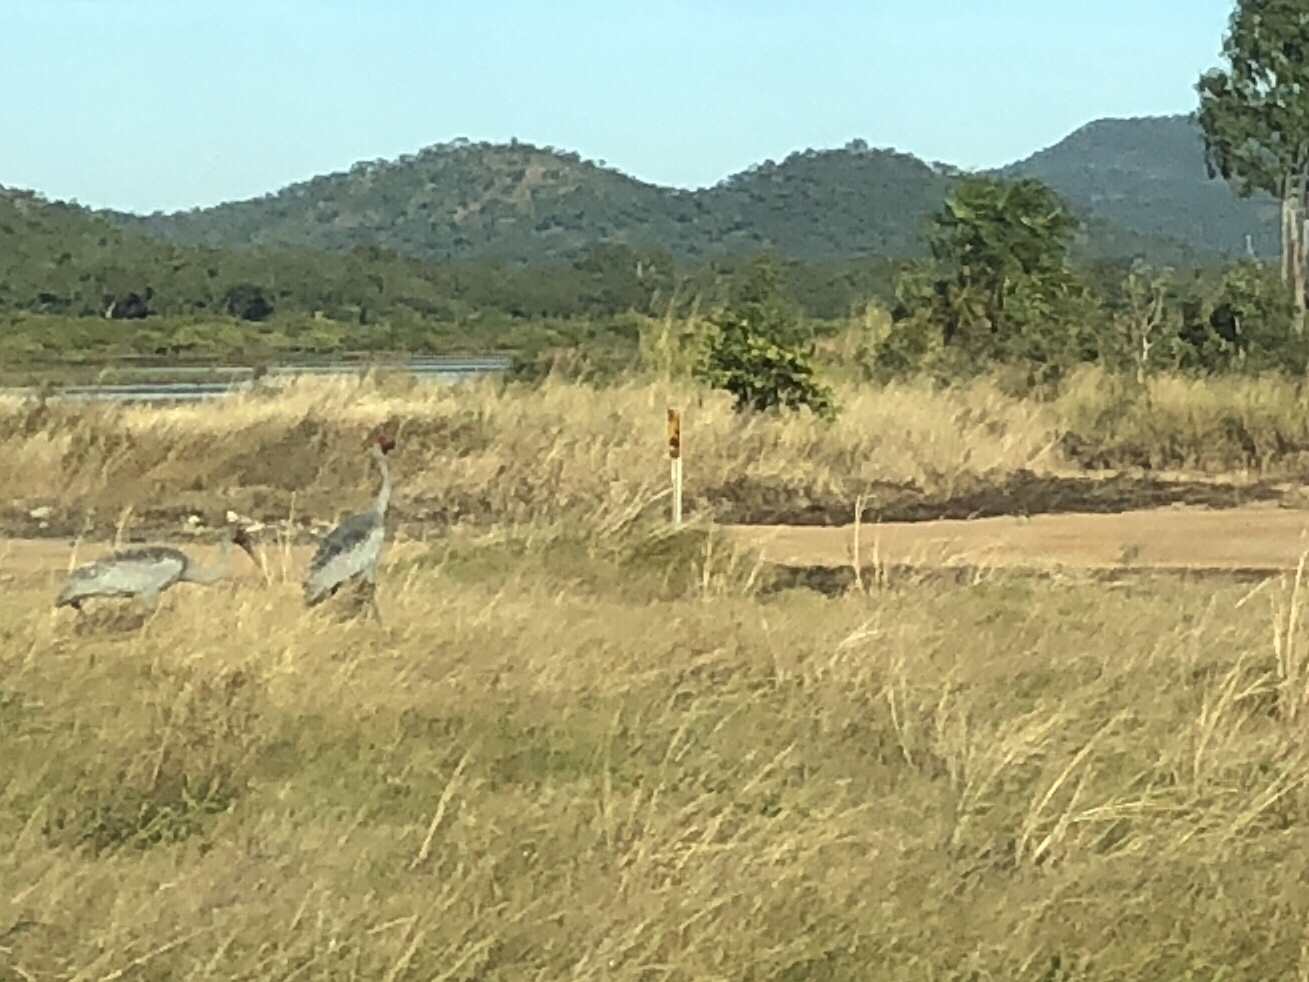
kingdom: Animalia
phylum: Chordata
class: Aves
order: Gruiformes
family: Gruidae
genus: Grus
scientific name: Grus rubicunda
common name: Brolga
